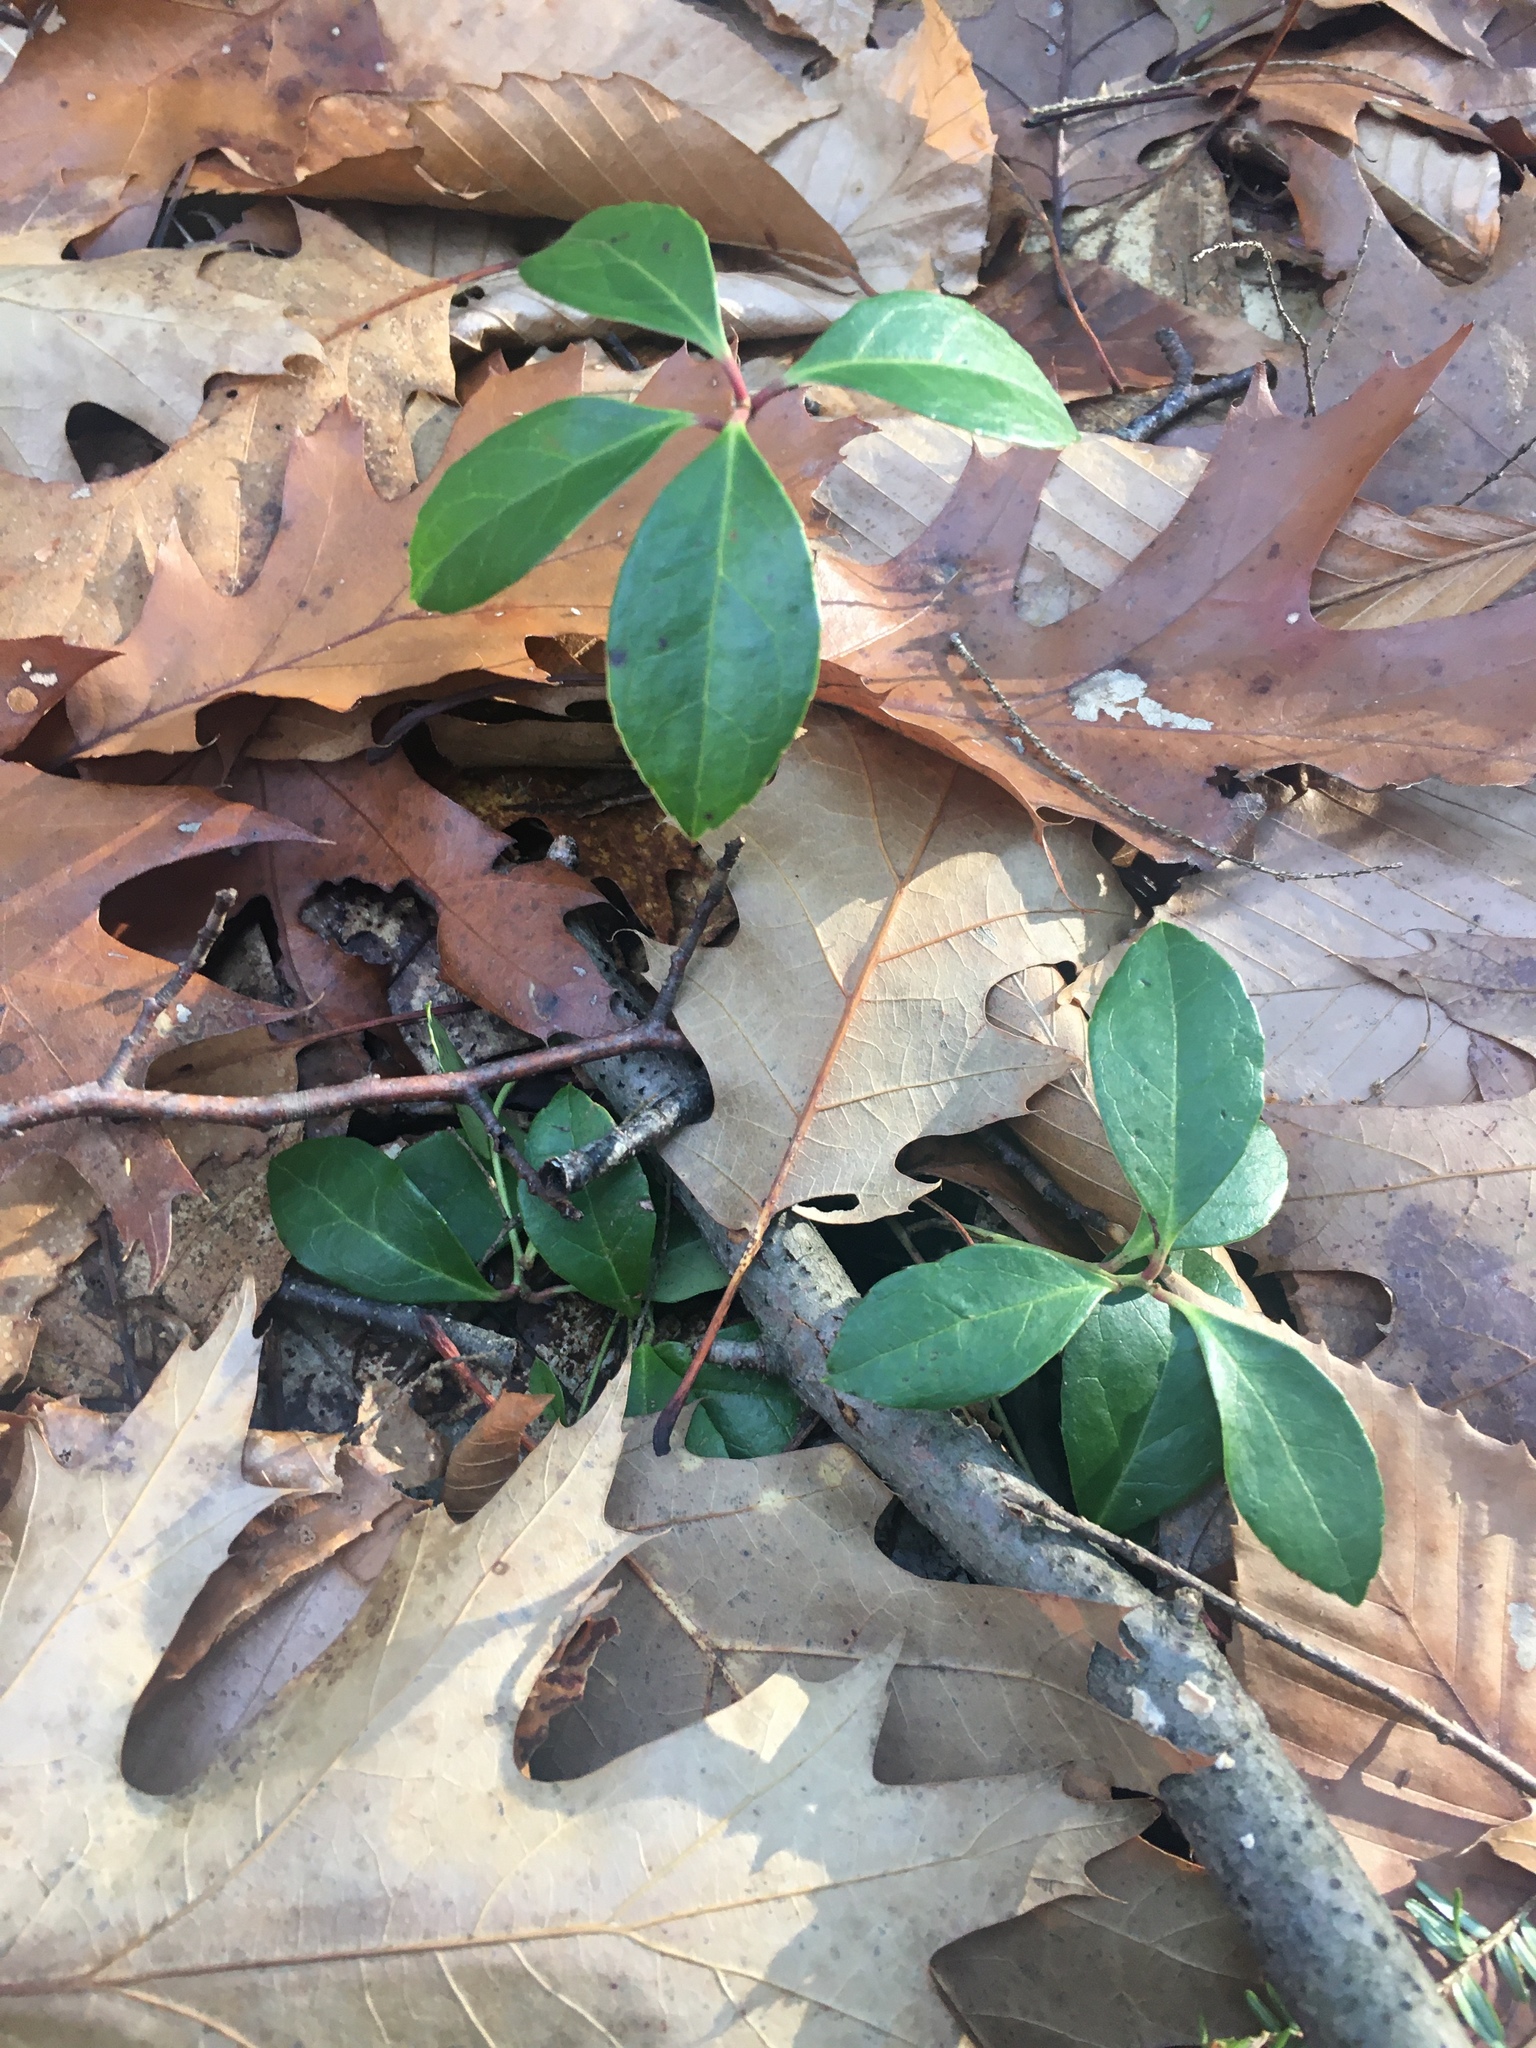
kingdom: Plantae
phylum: Tracheophyta
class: Magnoliopsida
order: Ericales
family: Ericaceae
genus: Gaultheria
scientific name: Gaultheria procumbens
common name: Checkerberry
